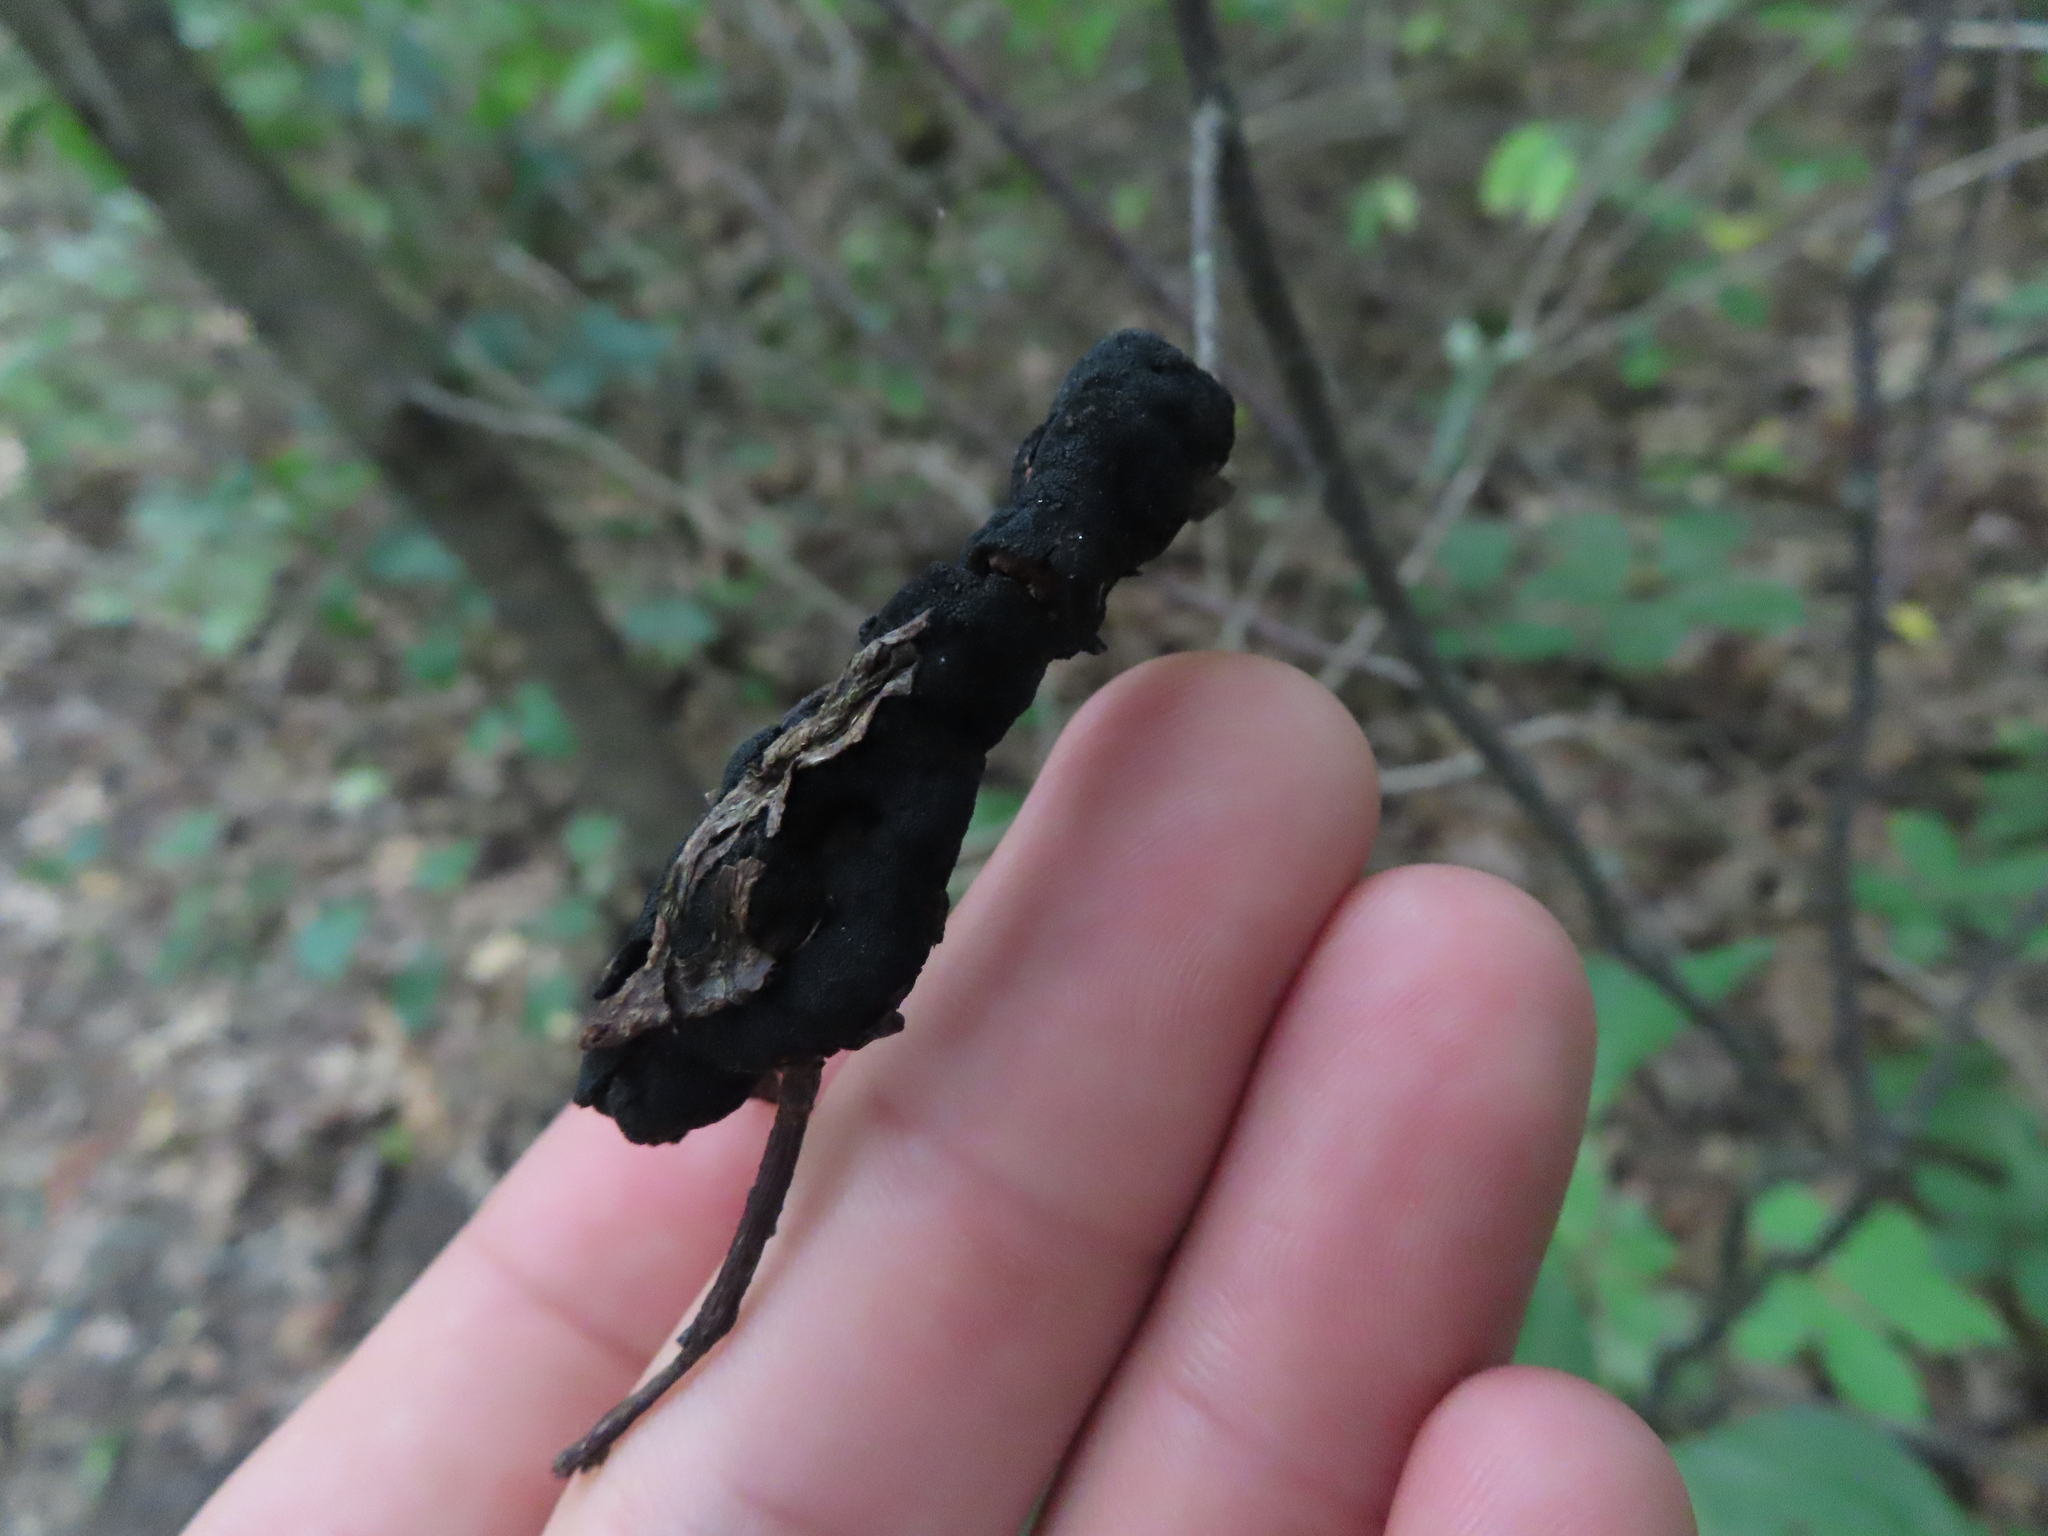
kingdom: Fungi
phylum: Ascomycota
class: Dothideomycetes
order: Venturiales
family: Venturiaceae
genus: Apiosporina
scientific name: Apiosporina morbosa
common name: Black knot
